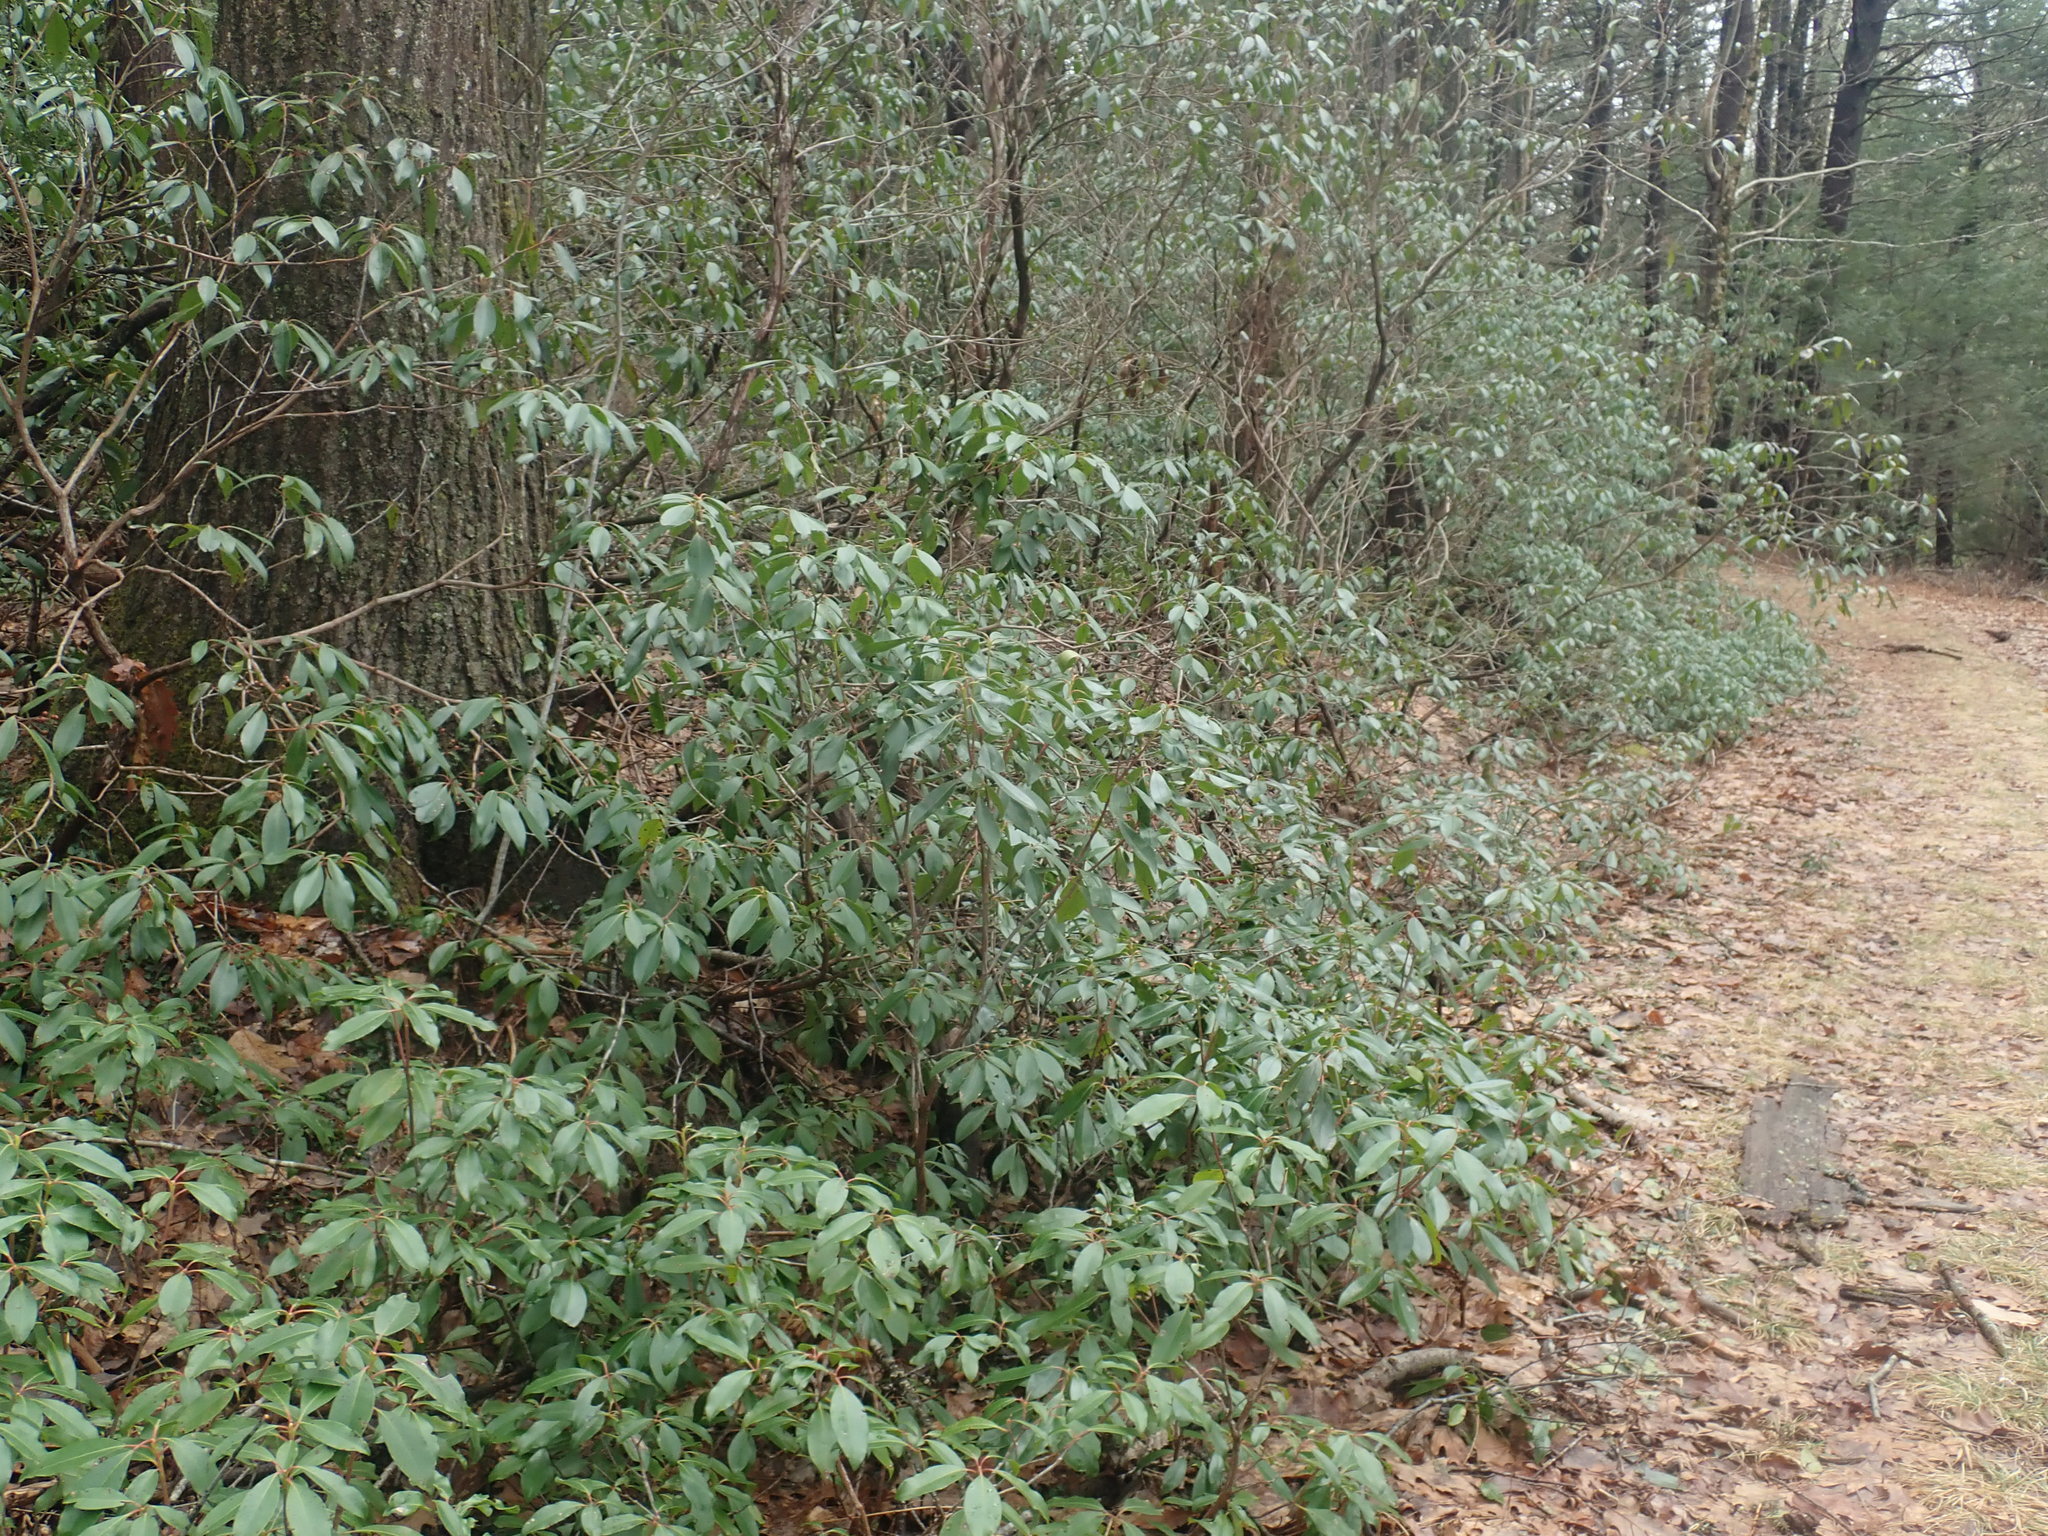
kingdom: Plantae
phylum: Tracheophyta
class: Magnoliopsida
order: Ericales
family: Ericaceae
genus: Kalmia
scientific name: Kalmia latifolia
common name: Mountain-laurel
